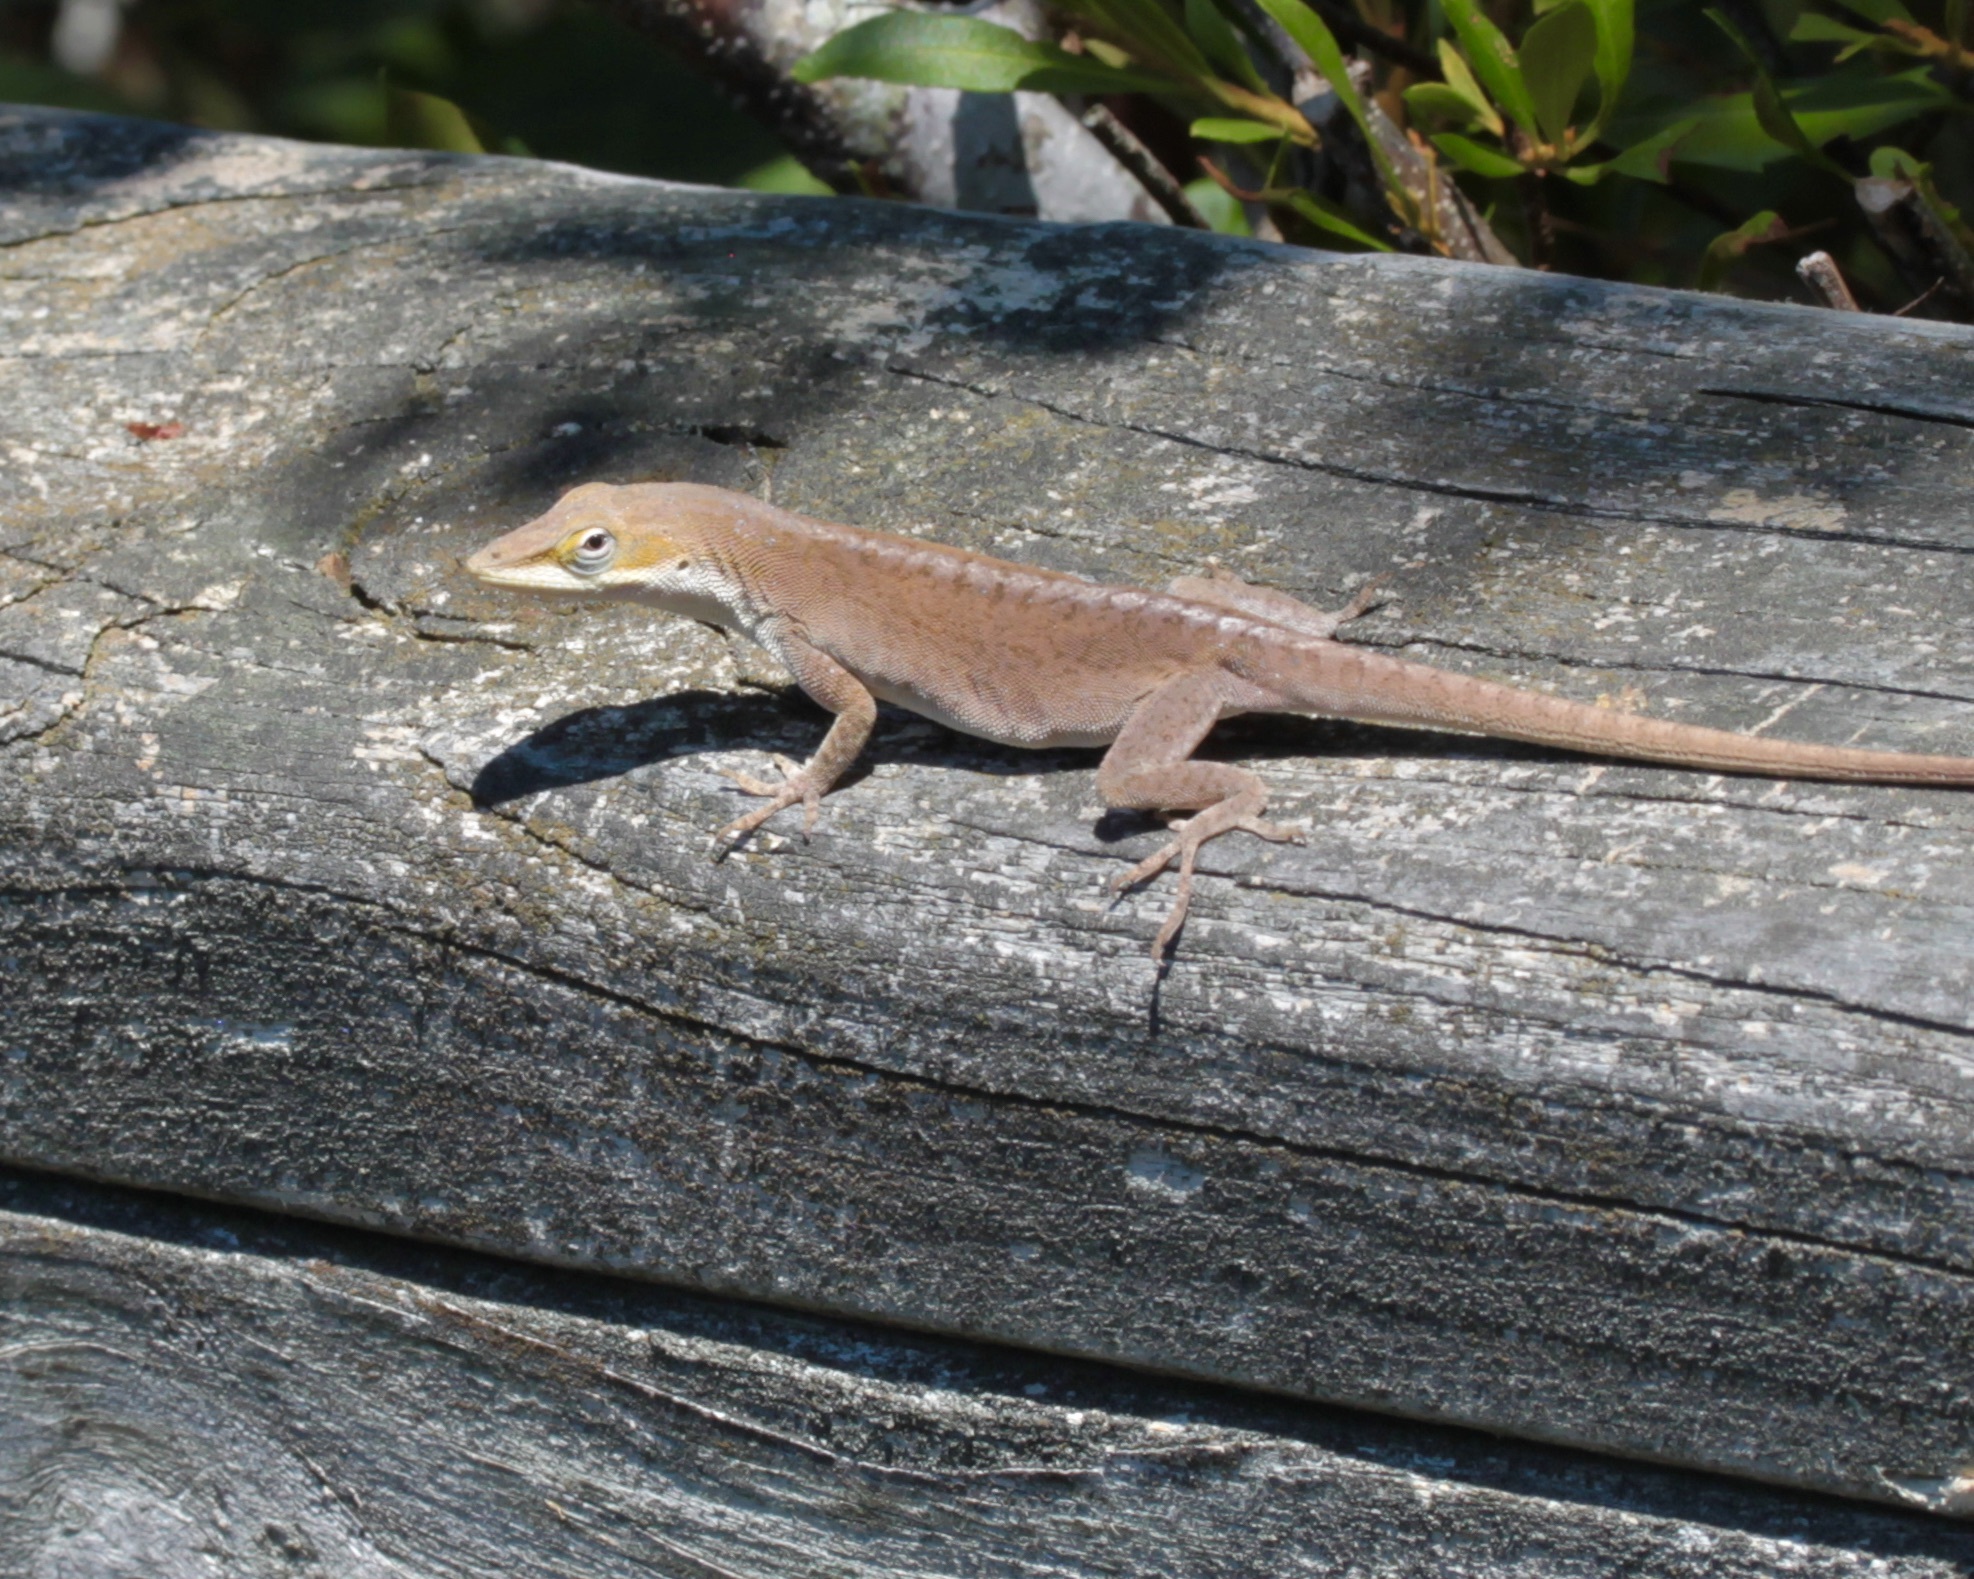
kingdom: Animalia
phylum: Chordata
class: Squamata
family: Dactyloidae
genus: Anolis
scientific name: Anolis carolinensis
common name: Green anole
